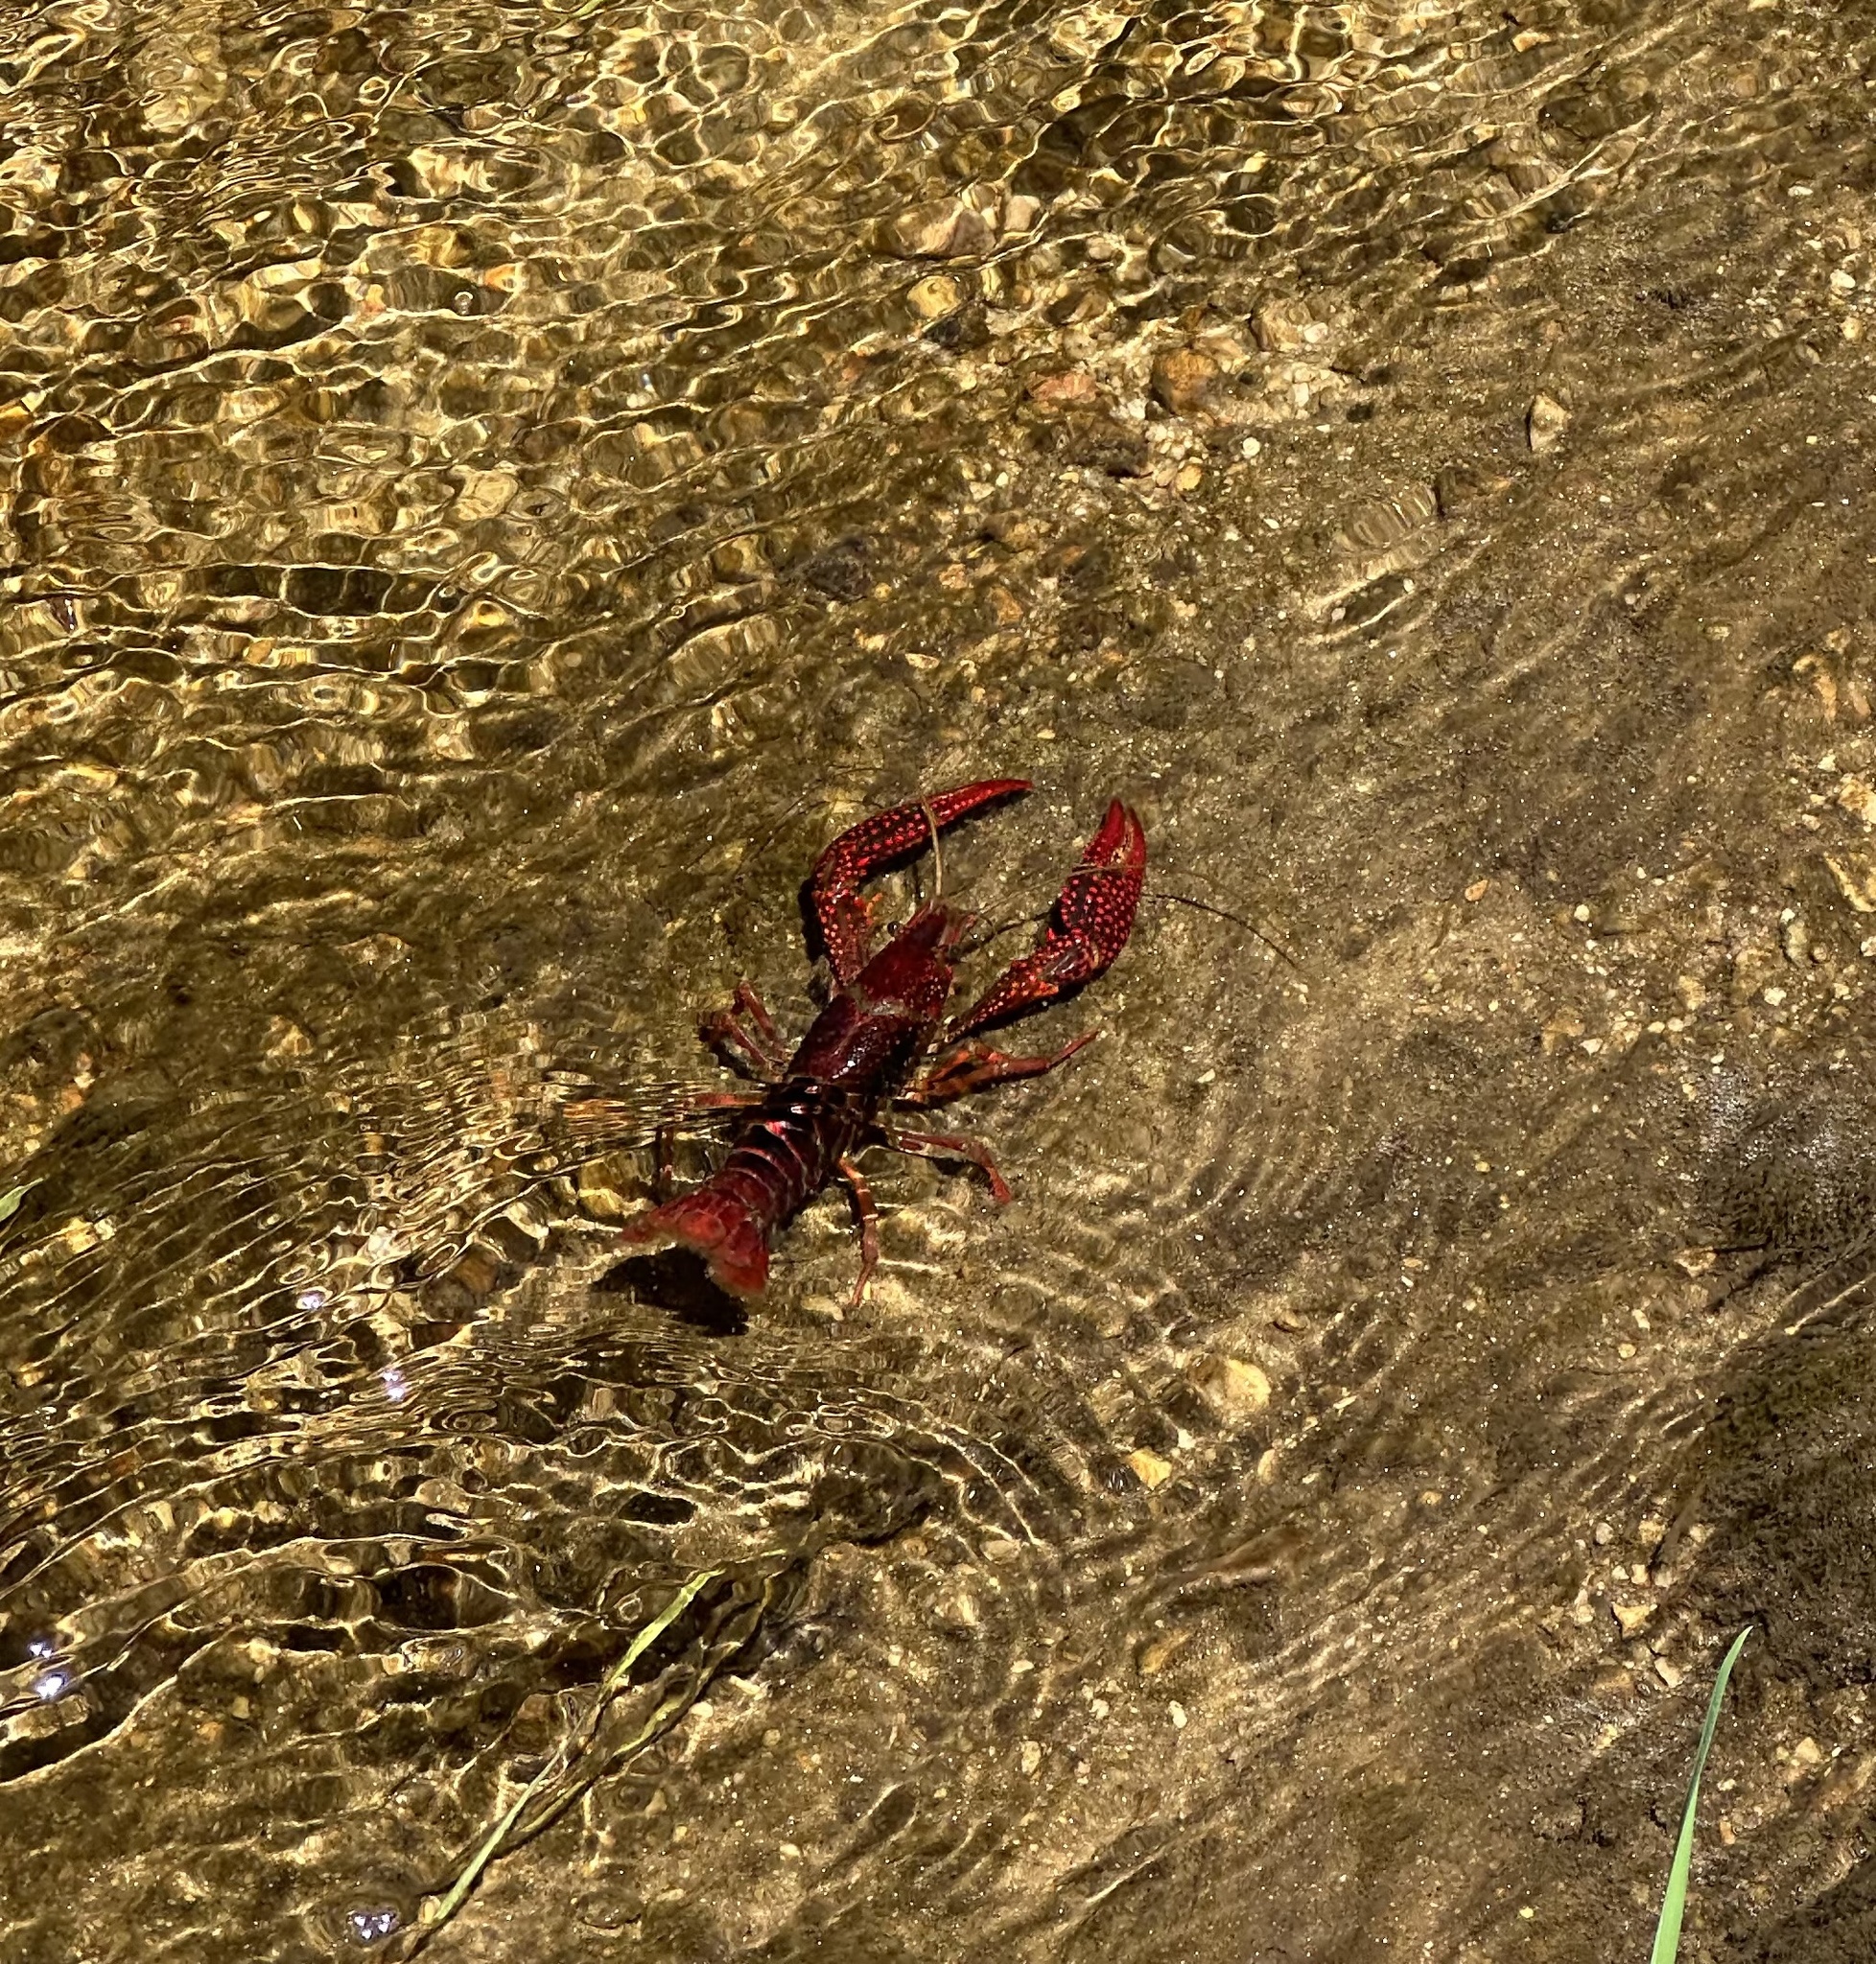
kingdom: Animalia
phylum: Arthropoda
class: Malacostraca
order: Decapoda
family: Cambaridae
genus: Procambarus
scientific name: Procambarus clarkii
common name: Red swamp crayfish
